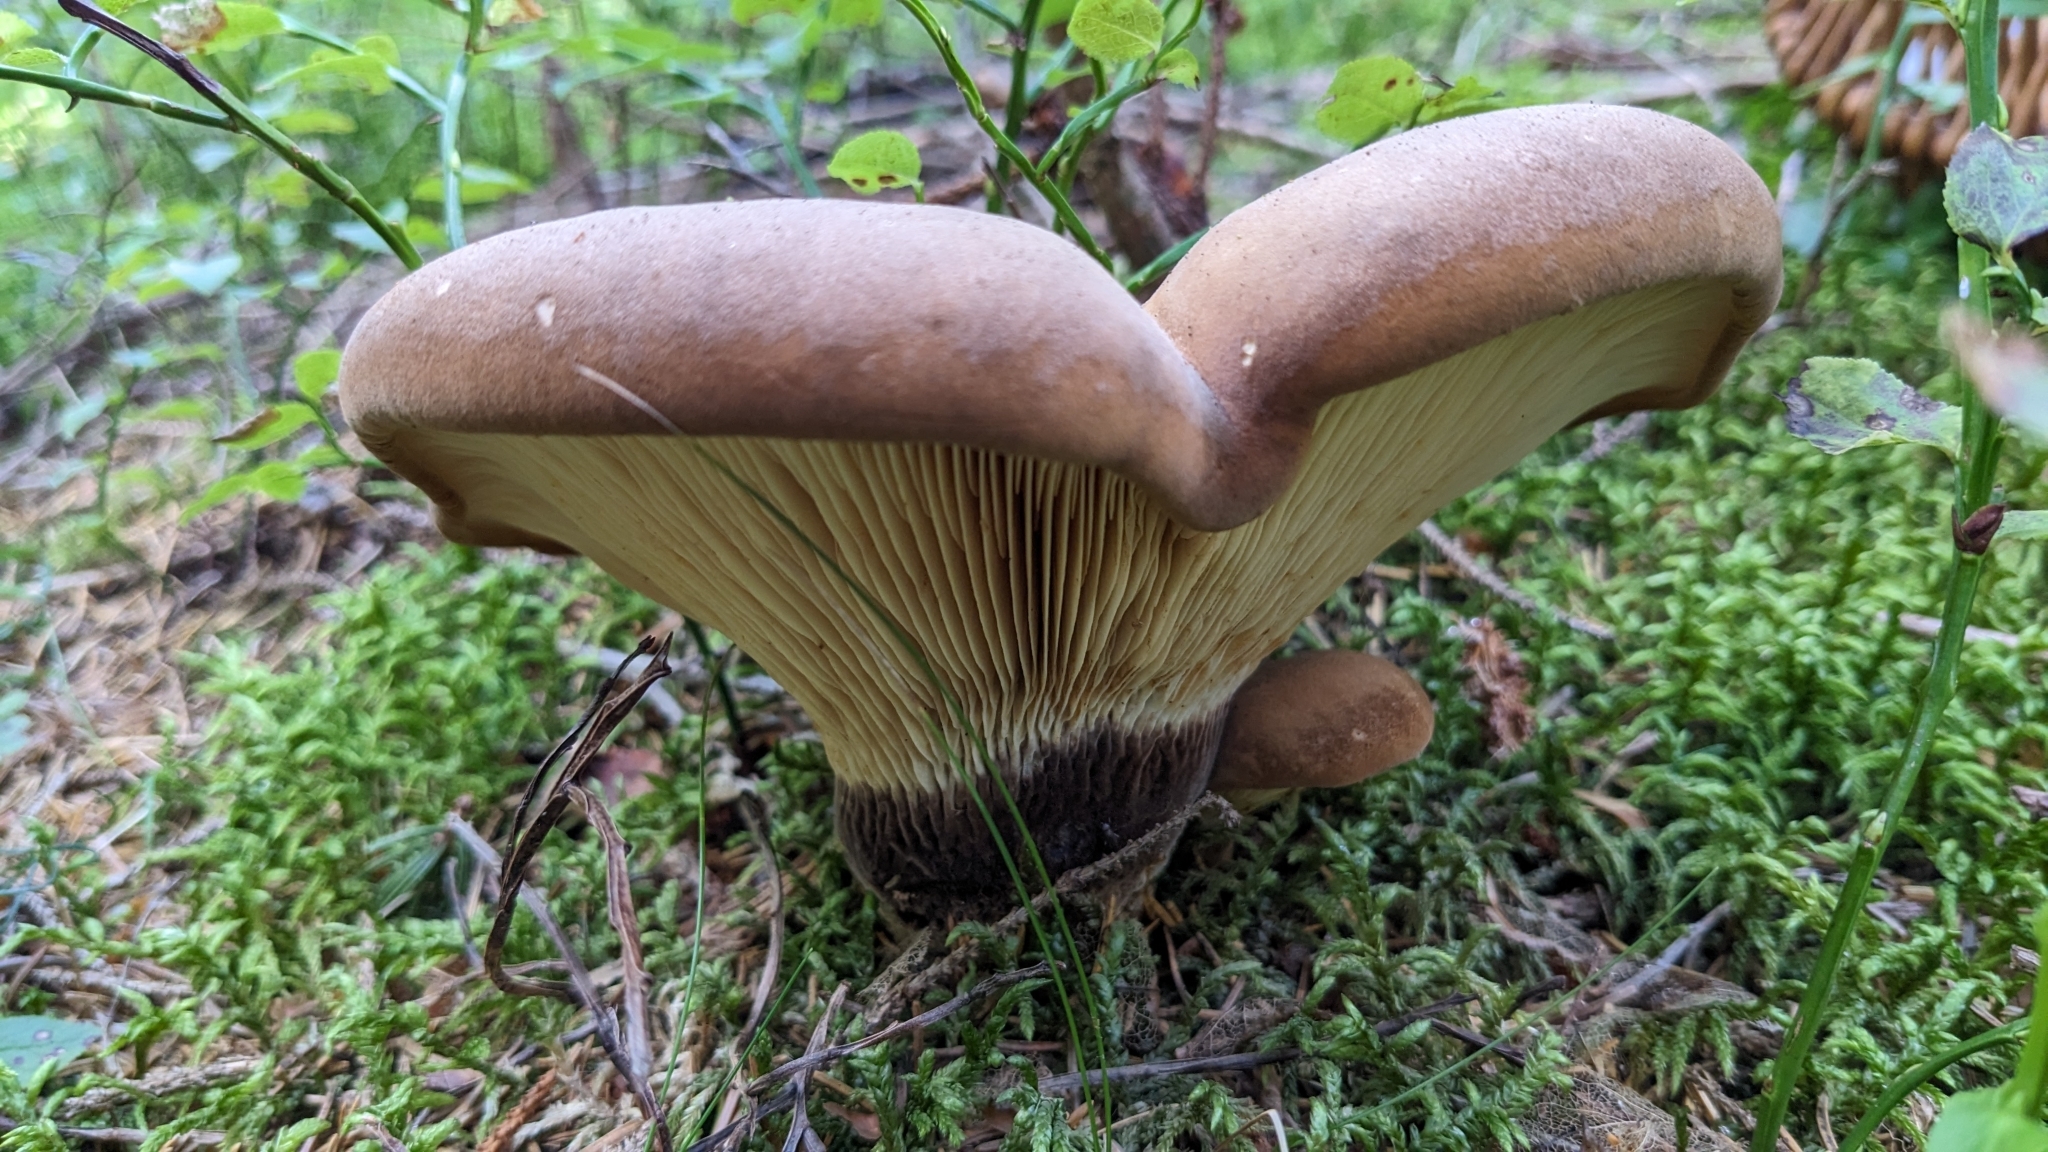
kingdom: Fungi
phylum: Basidiomycota
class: Agaricomycetes
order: Boletales
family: Tapinellaceae
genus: Tapinella
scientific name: Tapinella atrotomentosa
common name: Velvet rollrim
